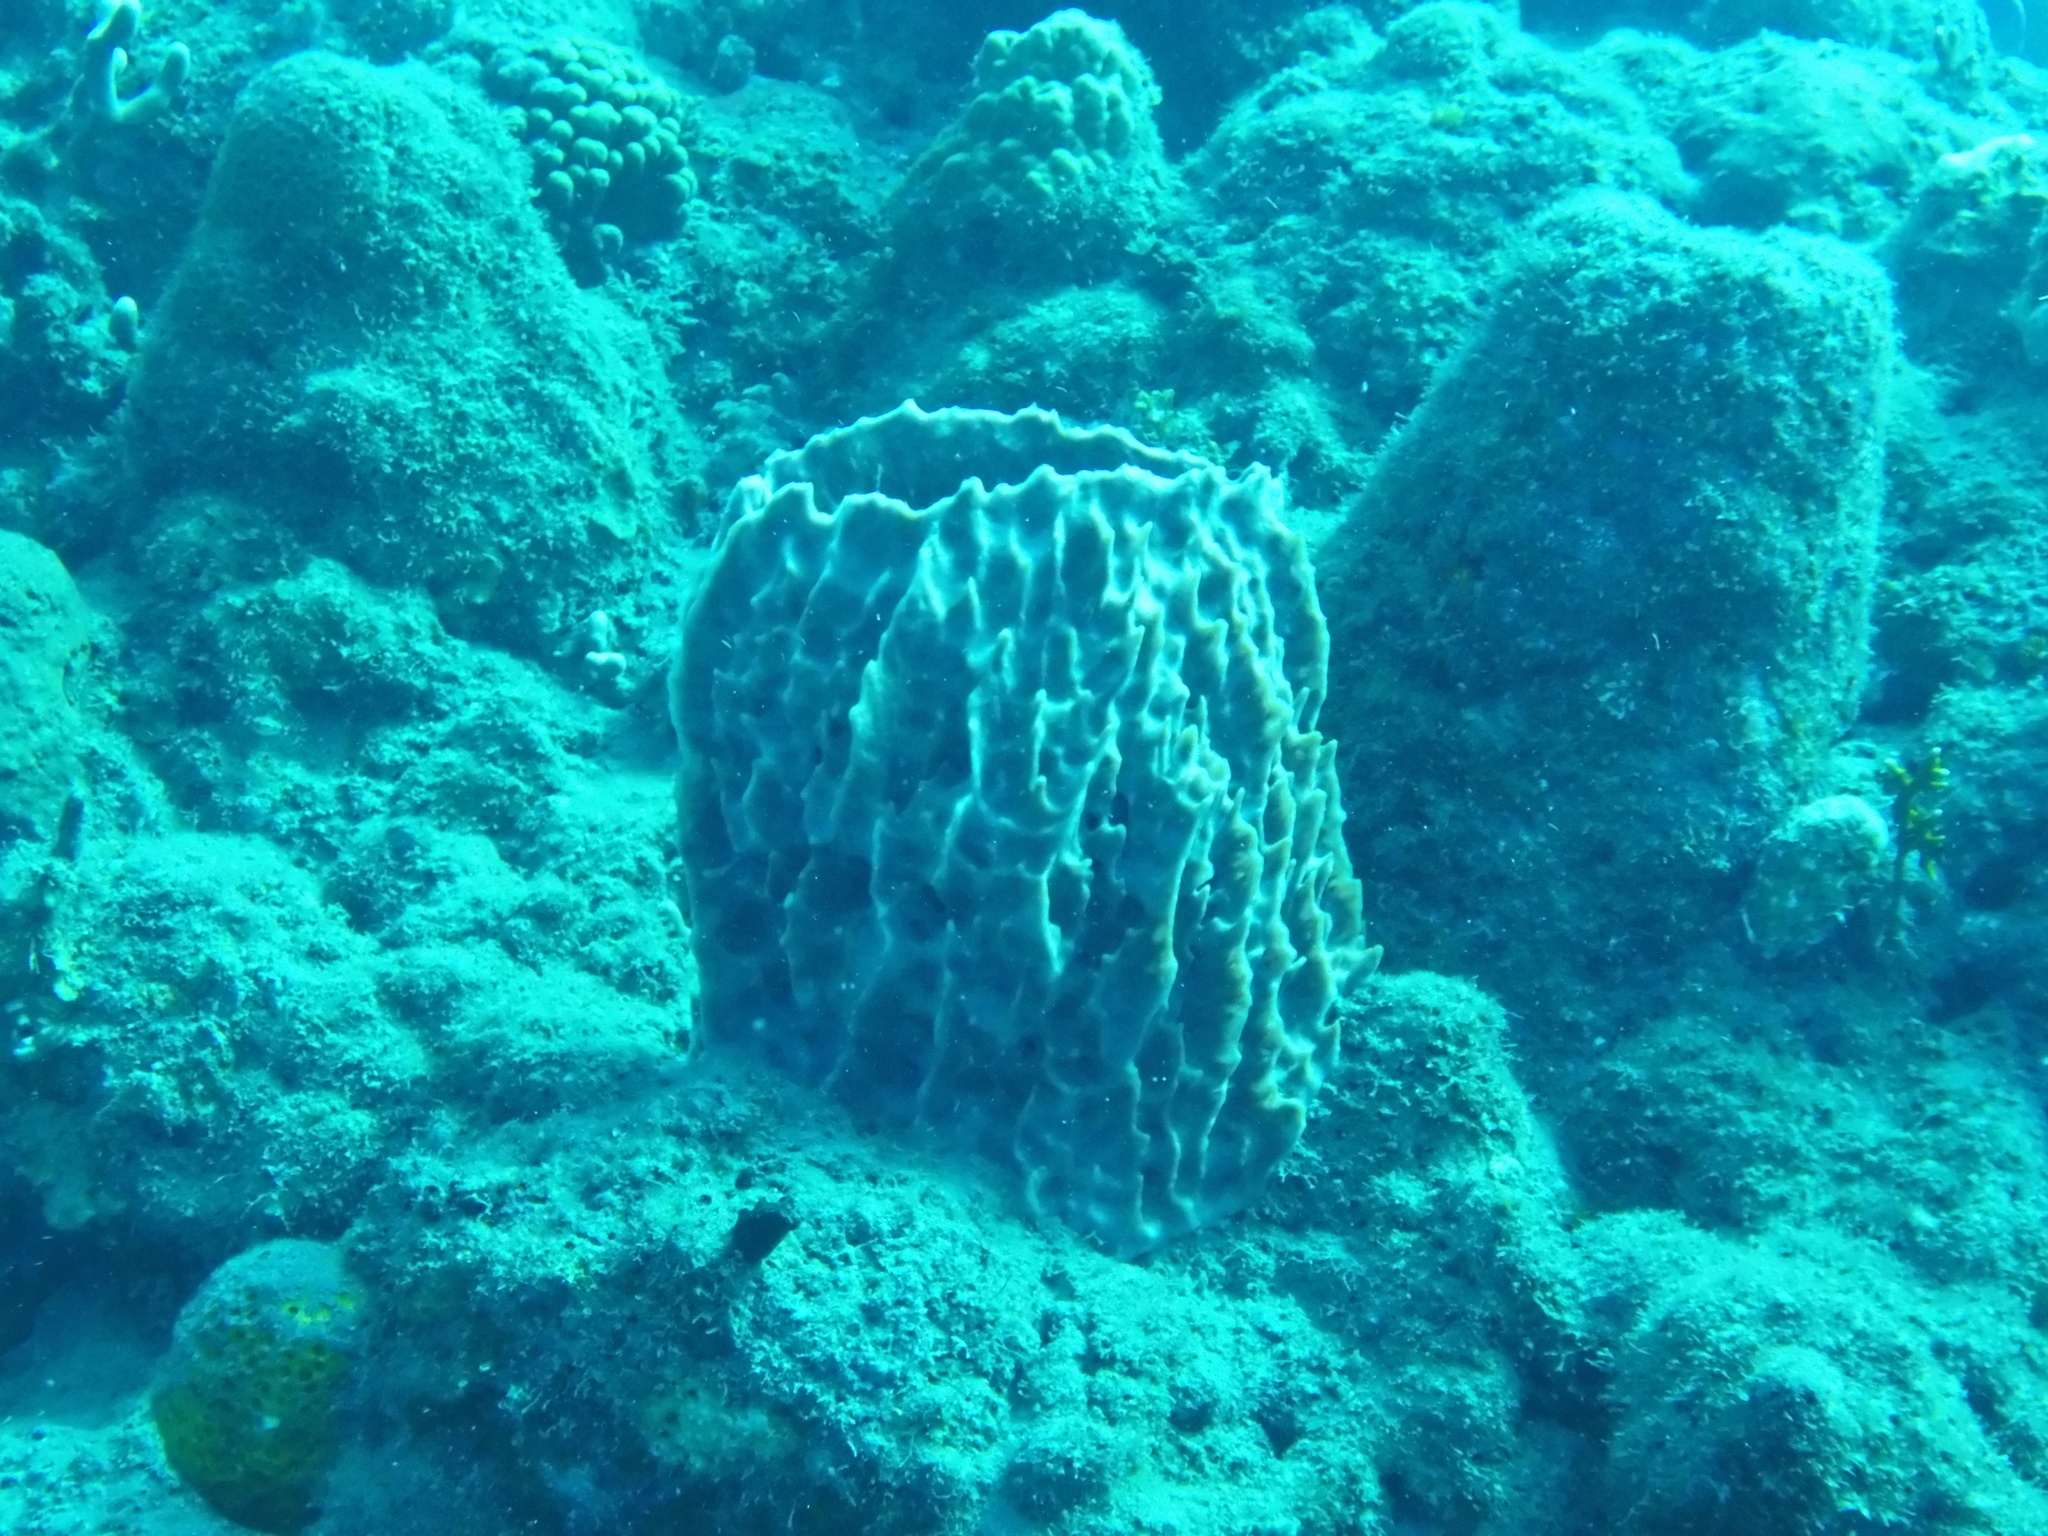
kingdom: Animalia
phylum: Porifera
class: Demospongiae
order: Haplosclerida
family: Petrosiidae
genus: Xestospongia
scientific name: Xestospongia muta
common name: Giant barrel sponge
